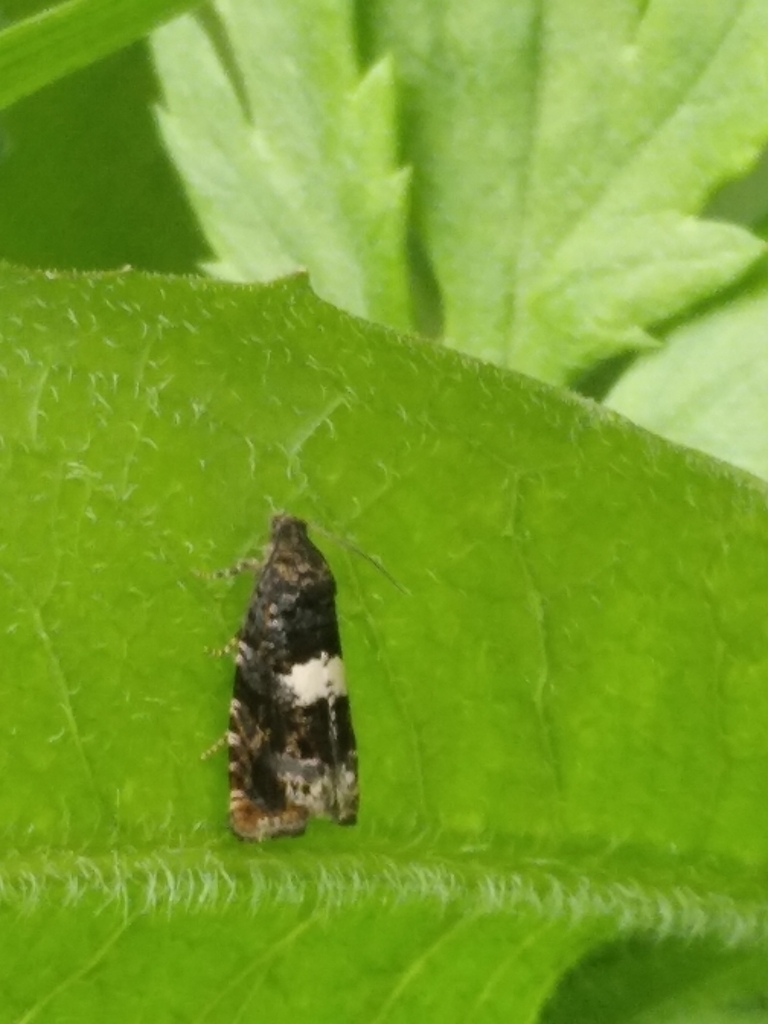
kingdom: Animalia
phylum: Arthropoda
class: Insecta
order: Lepidoptera
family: Tortricidae
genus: Epiblema
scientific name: Epiblema
